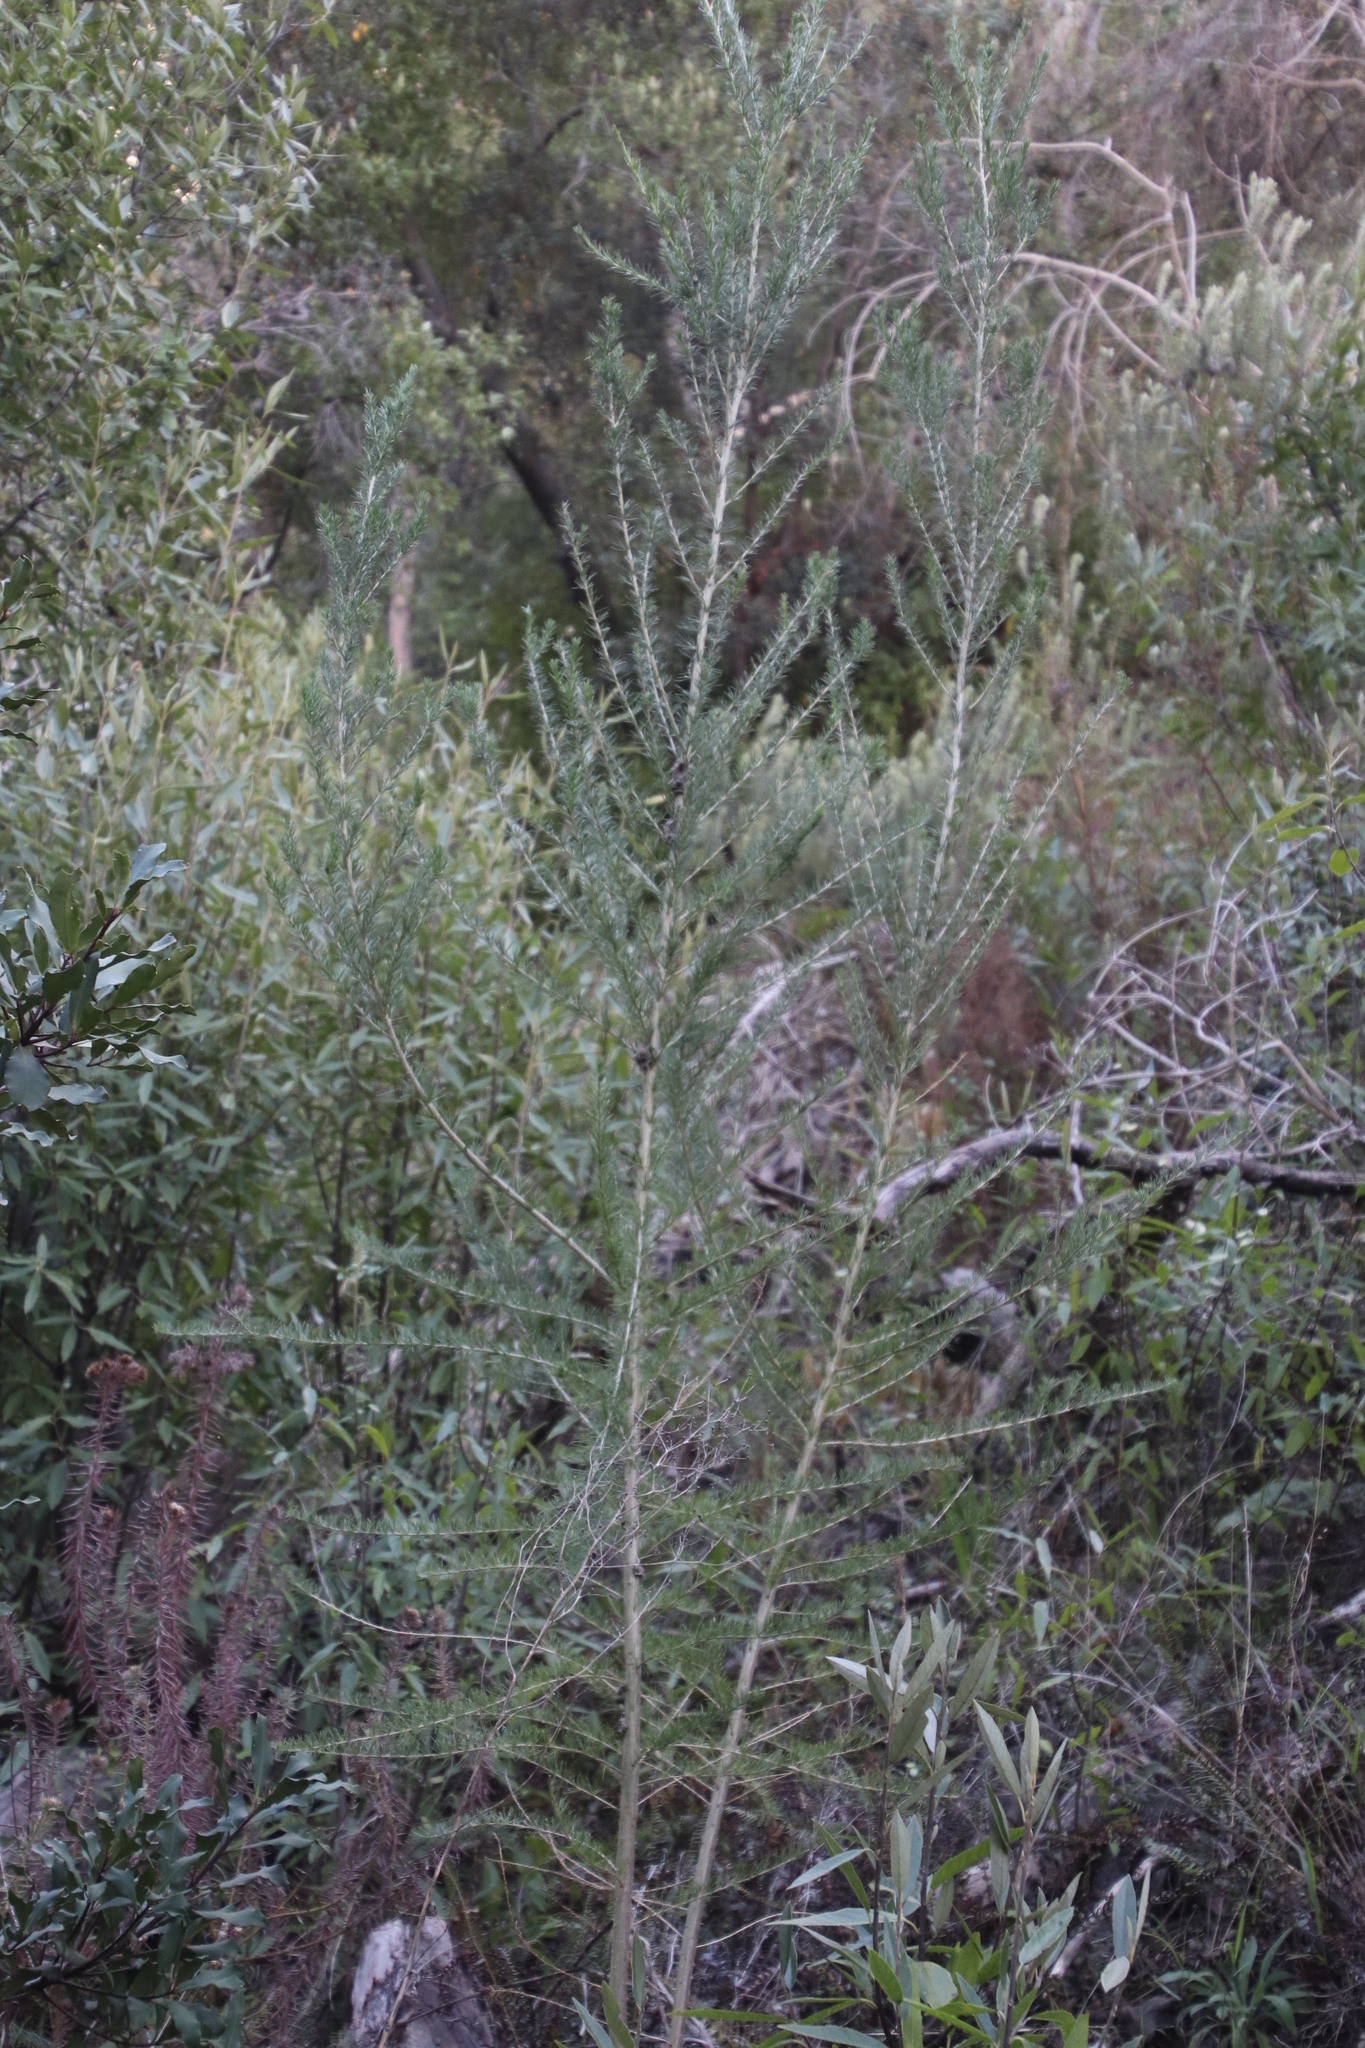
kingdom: Plantae
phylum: Tracheophyta
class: Magnoliopsida
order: Fabales
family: Fabaceae
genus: Aspalathus
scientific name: Aspalathus macrantha
